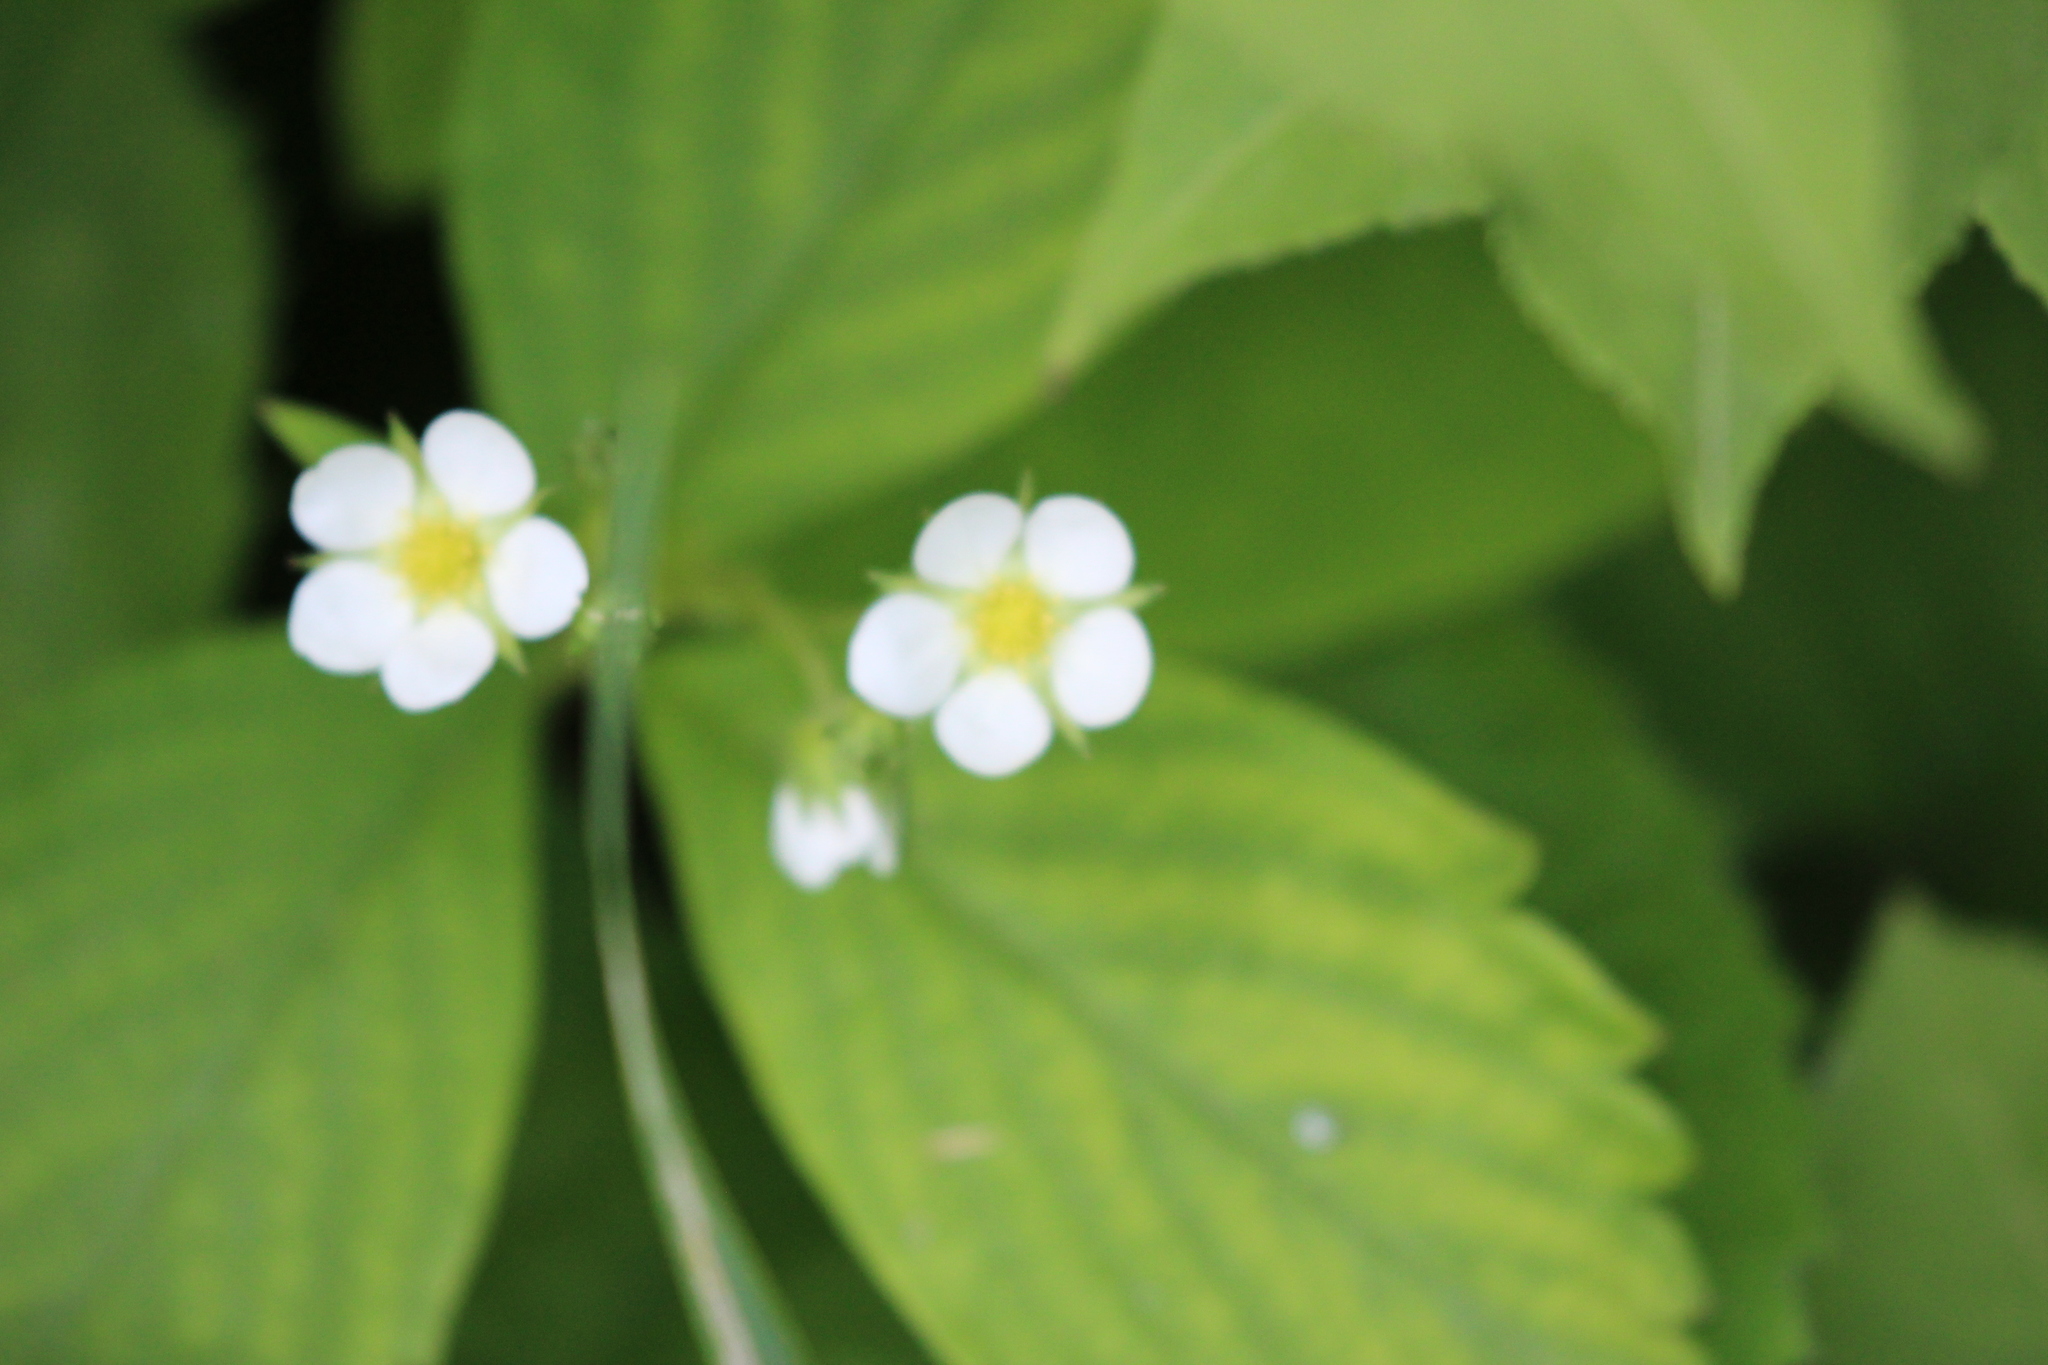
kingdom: Plantae
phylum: Tracheophyta
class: Magnoliopsida
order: Rosales
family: Rosaceae
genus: Fragaria
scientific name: Fragaria virginiana
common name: Thickleaved wild strawberry
